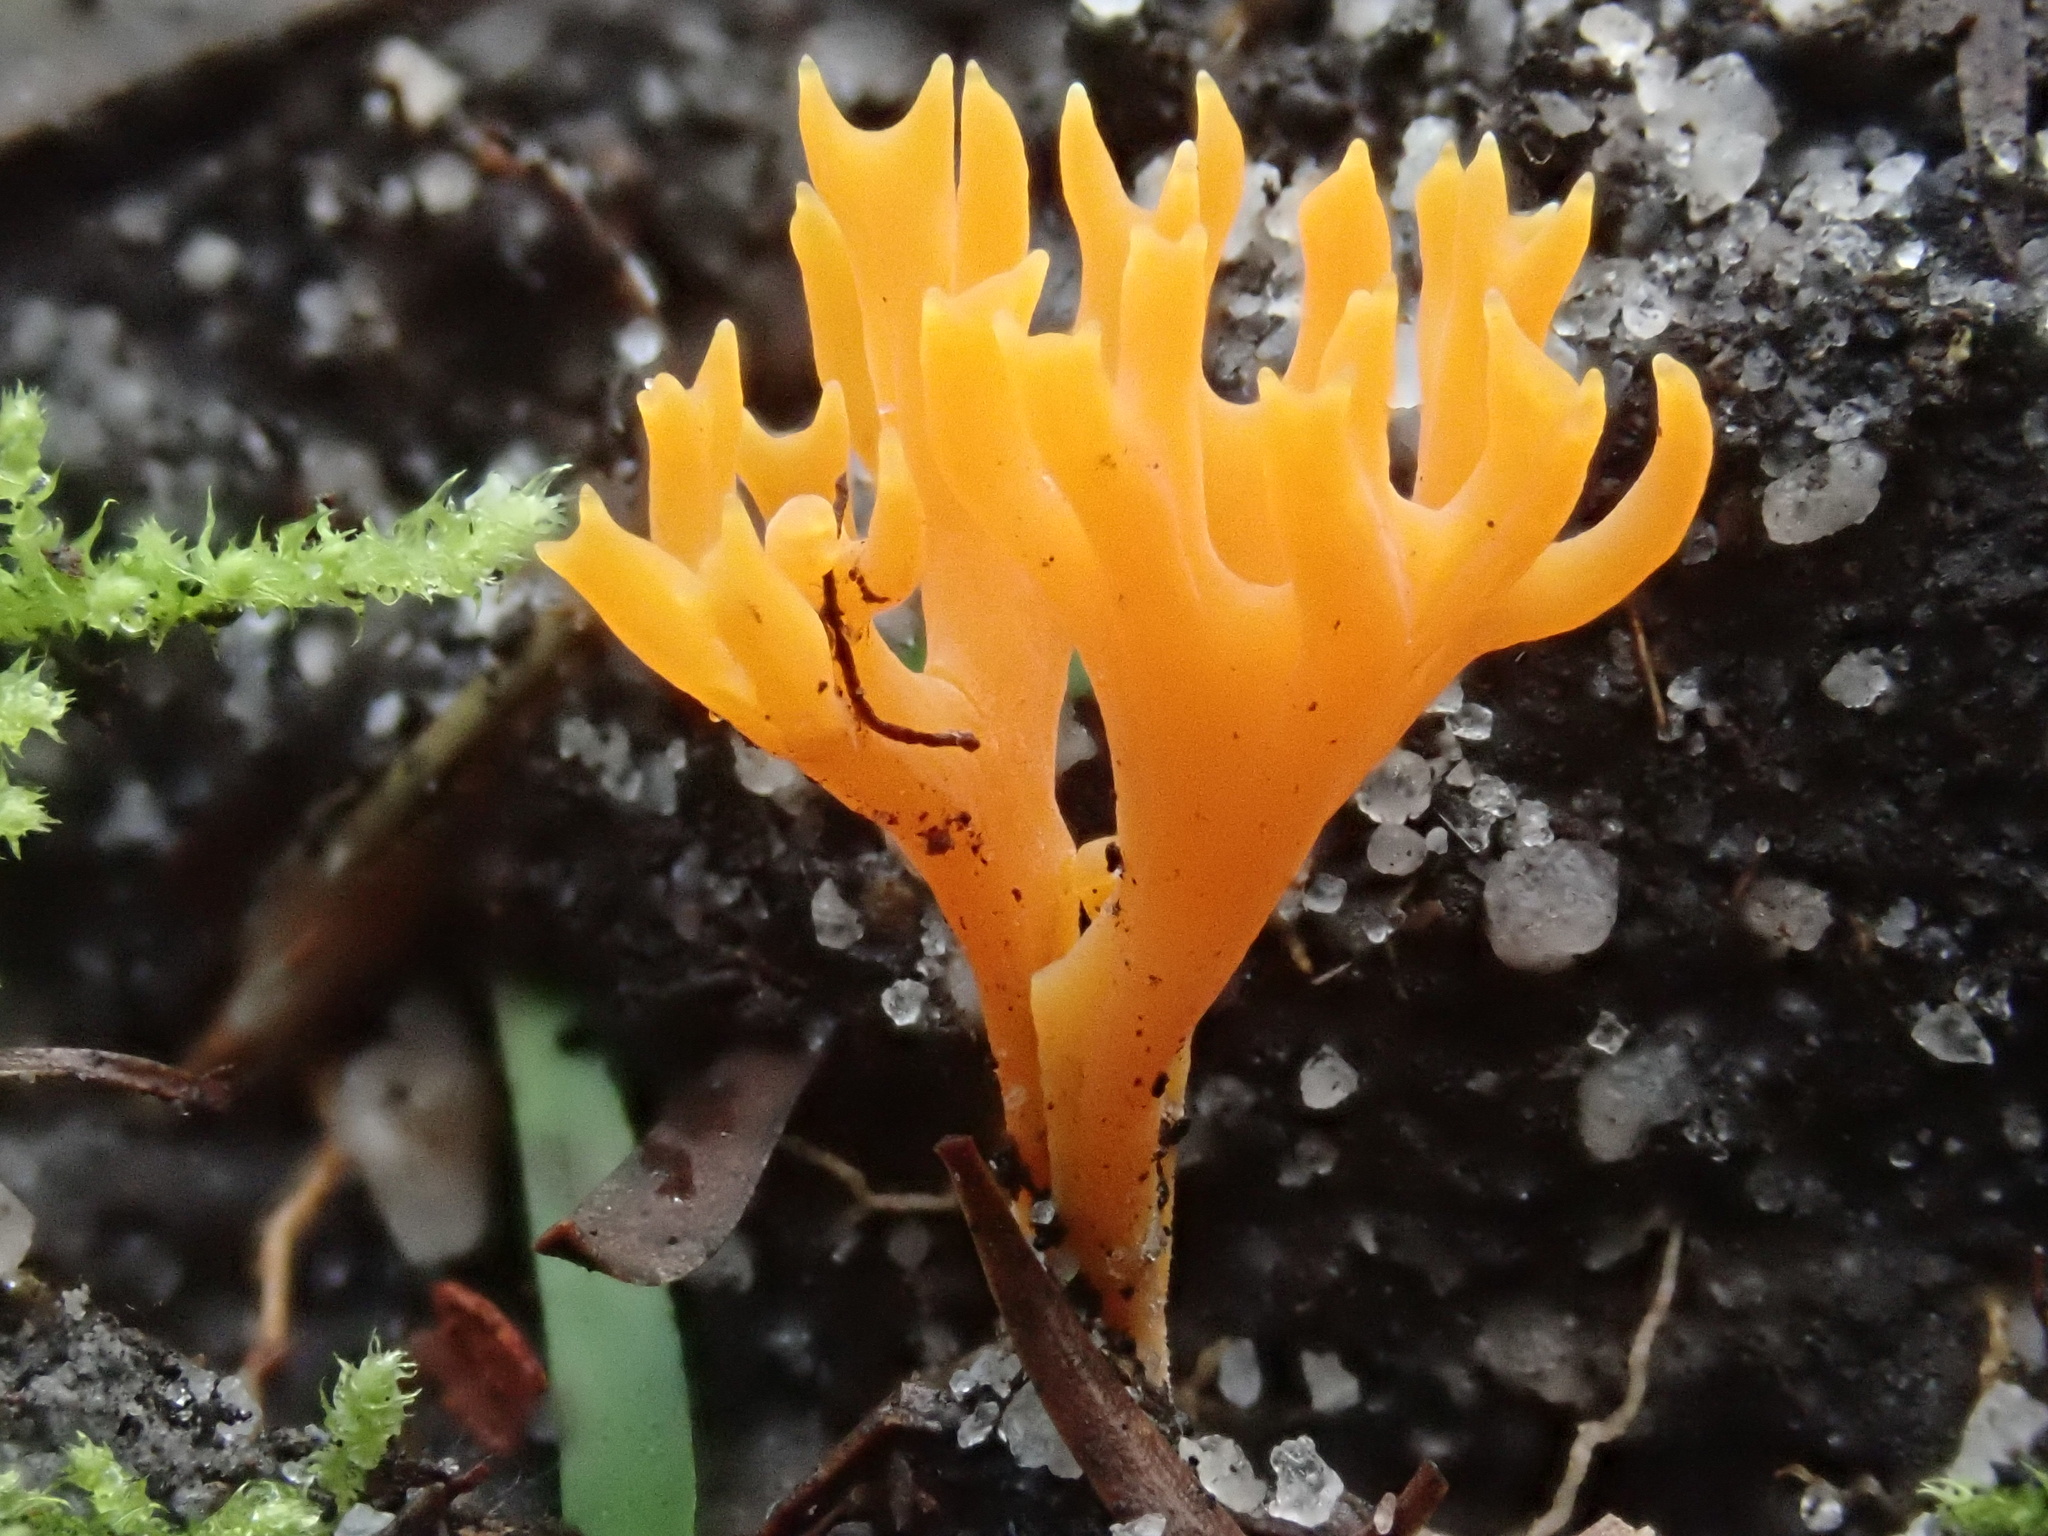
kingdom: Fungi
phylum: Basidiomycota
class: Agaricomycetes
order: Agaricales
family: Clavariaceae
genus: Ramariopsis
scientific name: Ramariopsis crocea
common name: Orange coral
